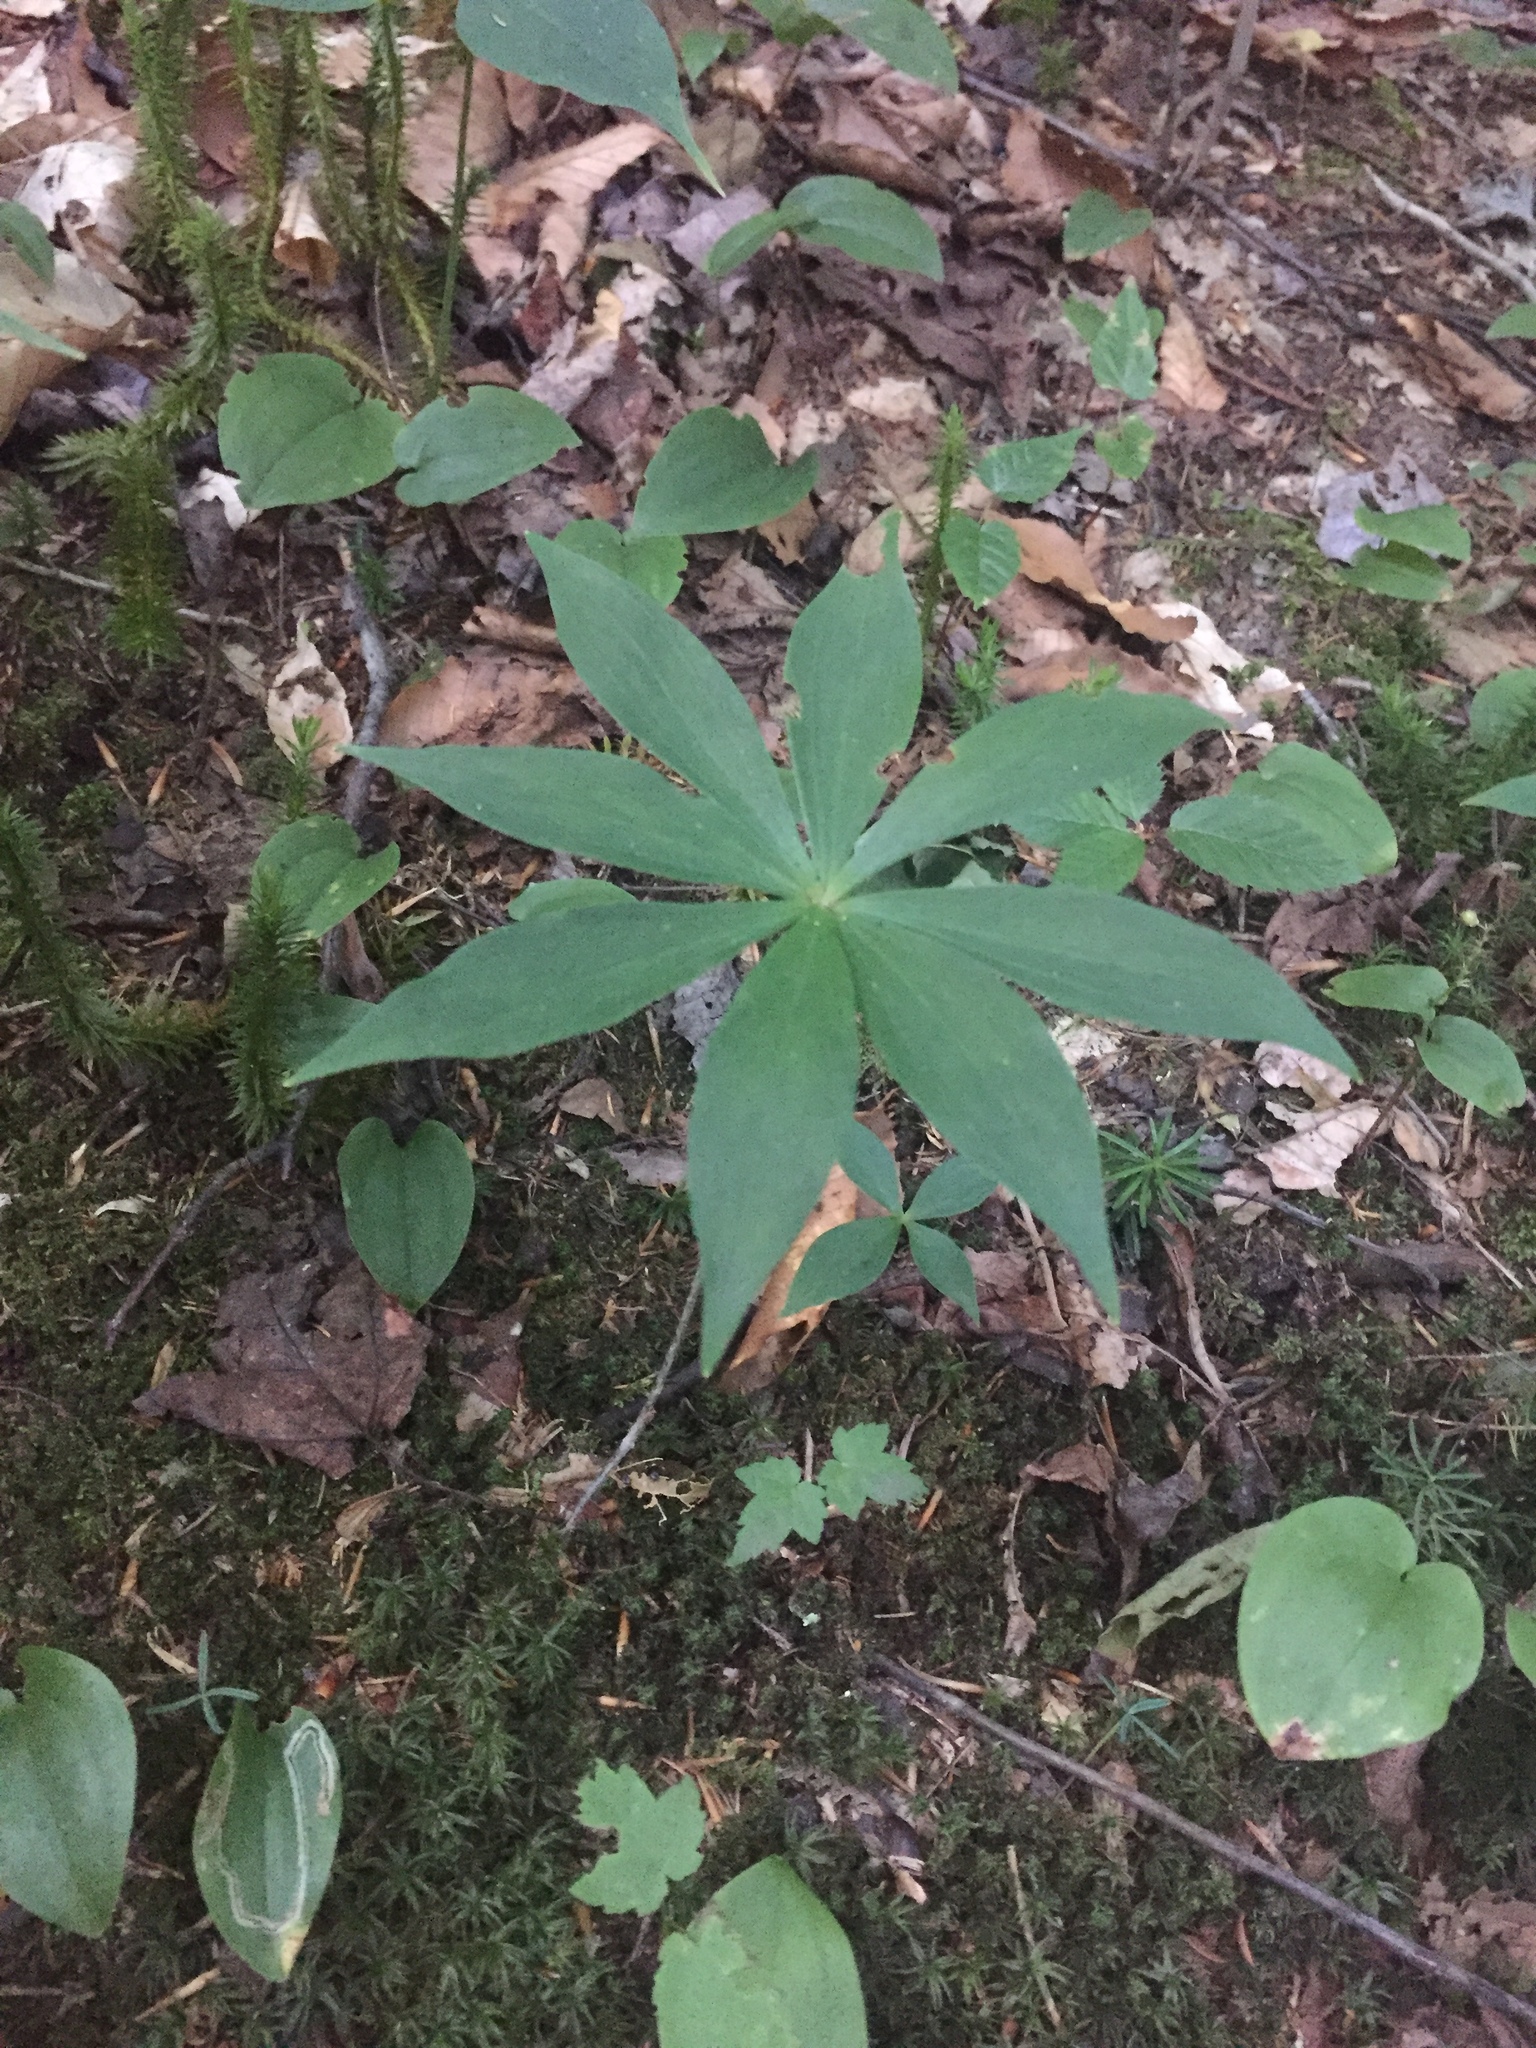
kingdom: Plantae
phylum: Tracheophyta
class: Liliopsida
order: Liliales
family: Liliaceae
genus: Medeola
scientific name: Medeola virginiana
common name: Indian cucumber-root
